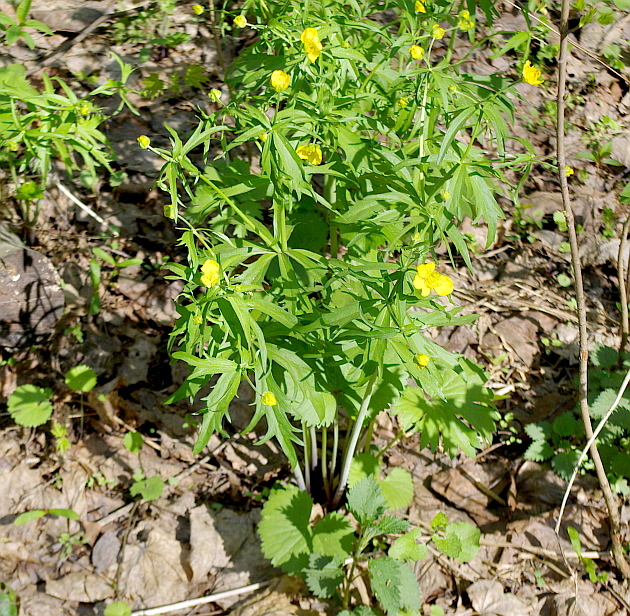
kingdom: Plantae
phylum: Tracheophyta
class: Magnoliopsida
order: Ranunculales
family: Ranunculaceae
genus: Ranunculus
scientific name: Ranunculus cassubicus
